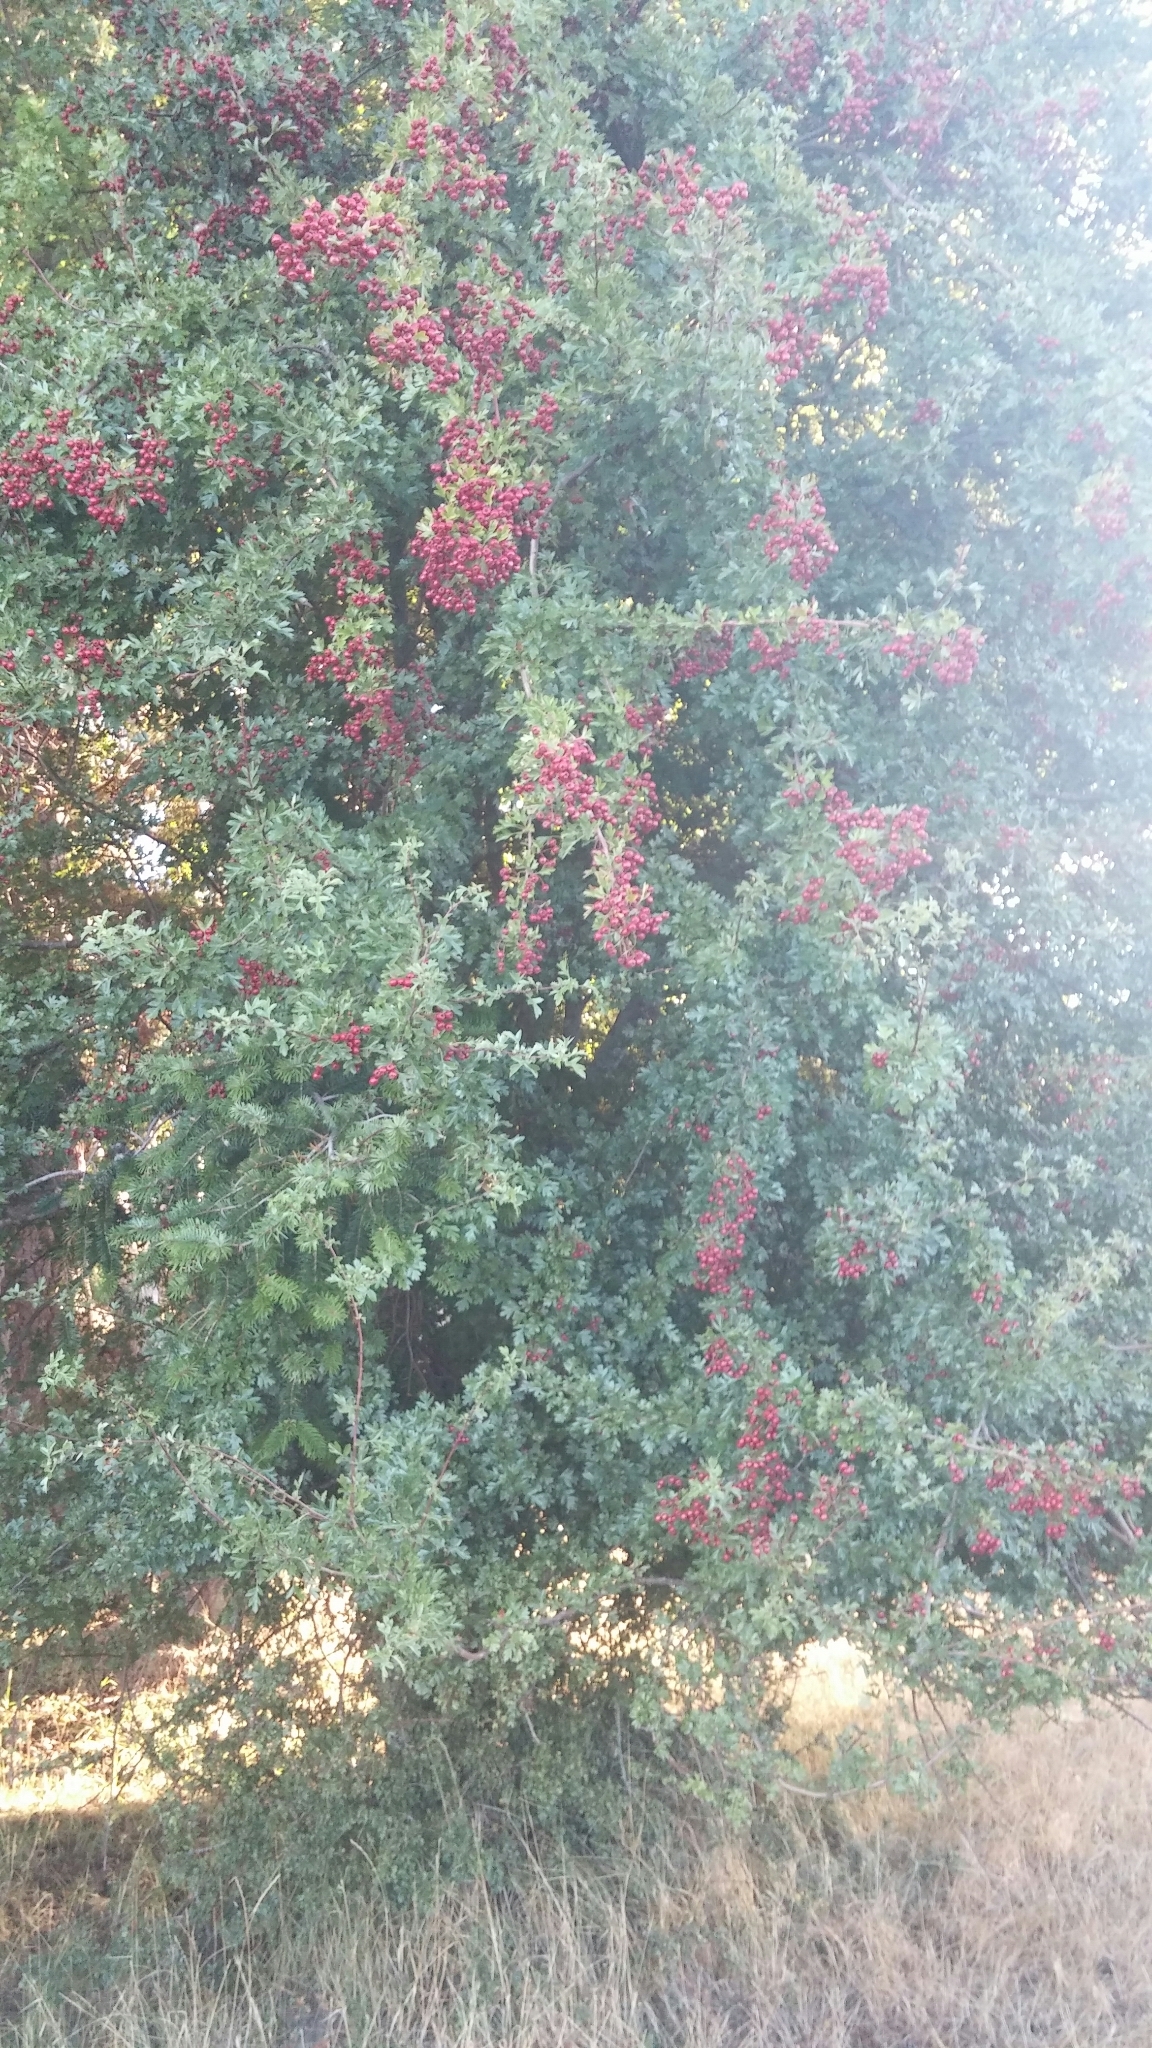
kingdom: Plantae
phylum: Tracheophyta
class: Magnoliopsida
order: Rosales
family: Rosaceae
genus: Crataegus
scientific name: Crataegus monogyna
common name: Hawthorn
